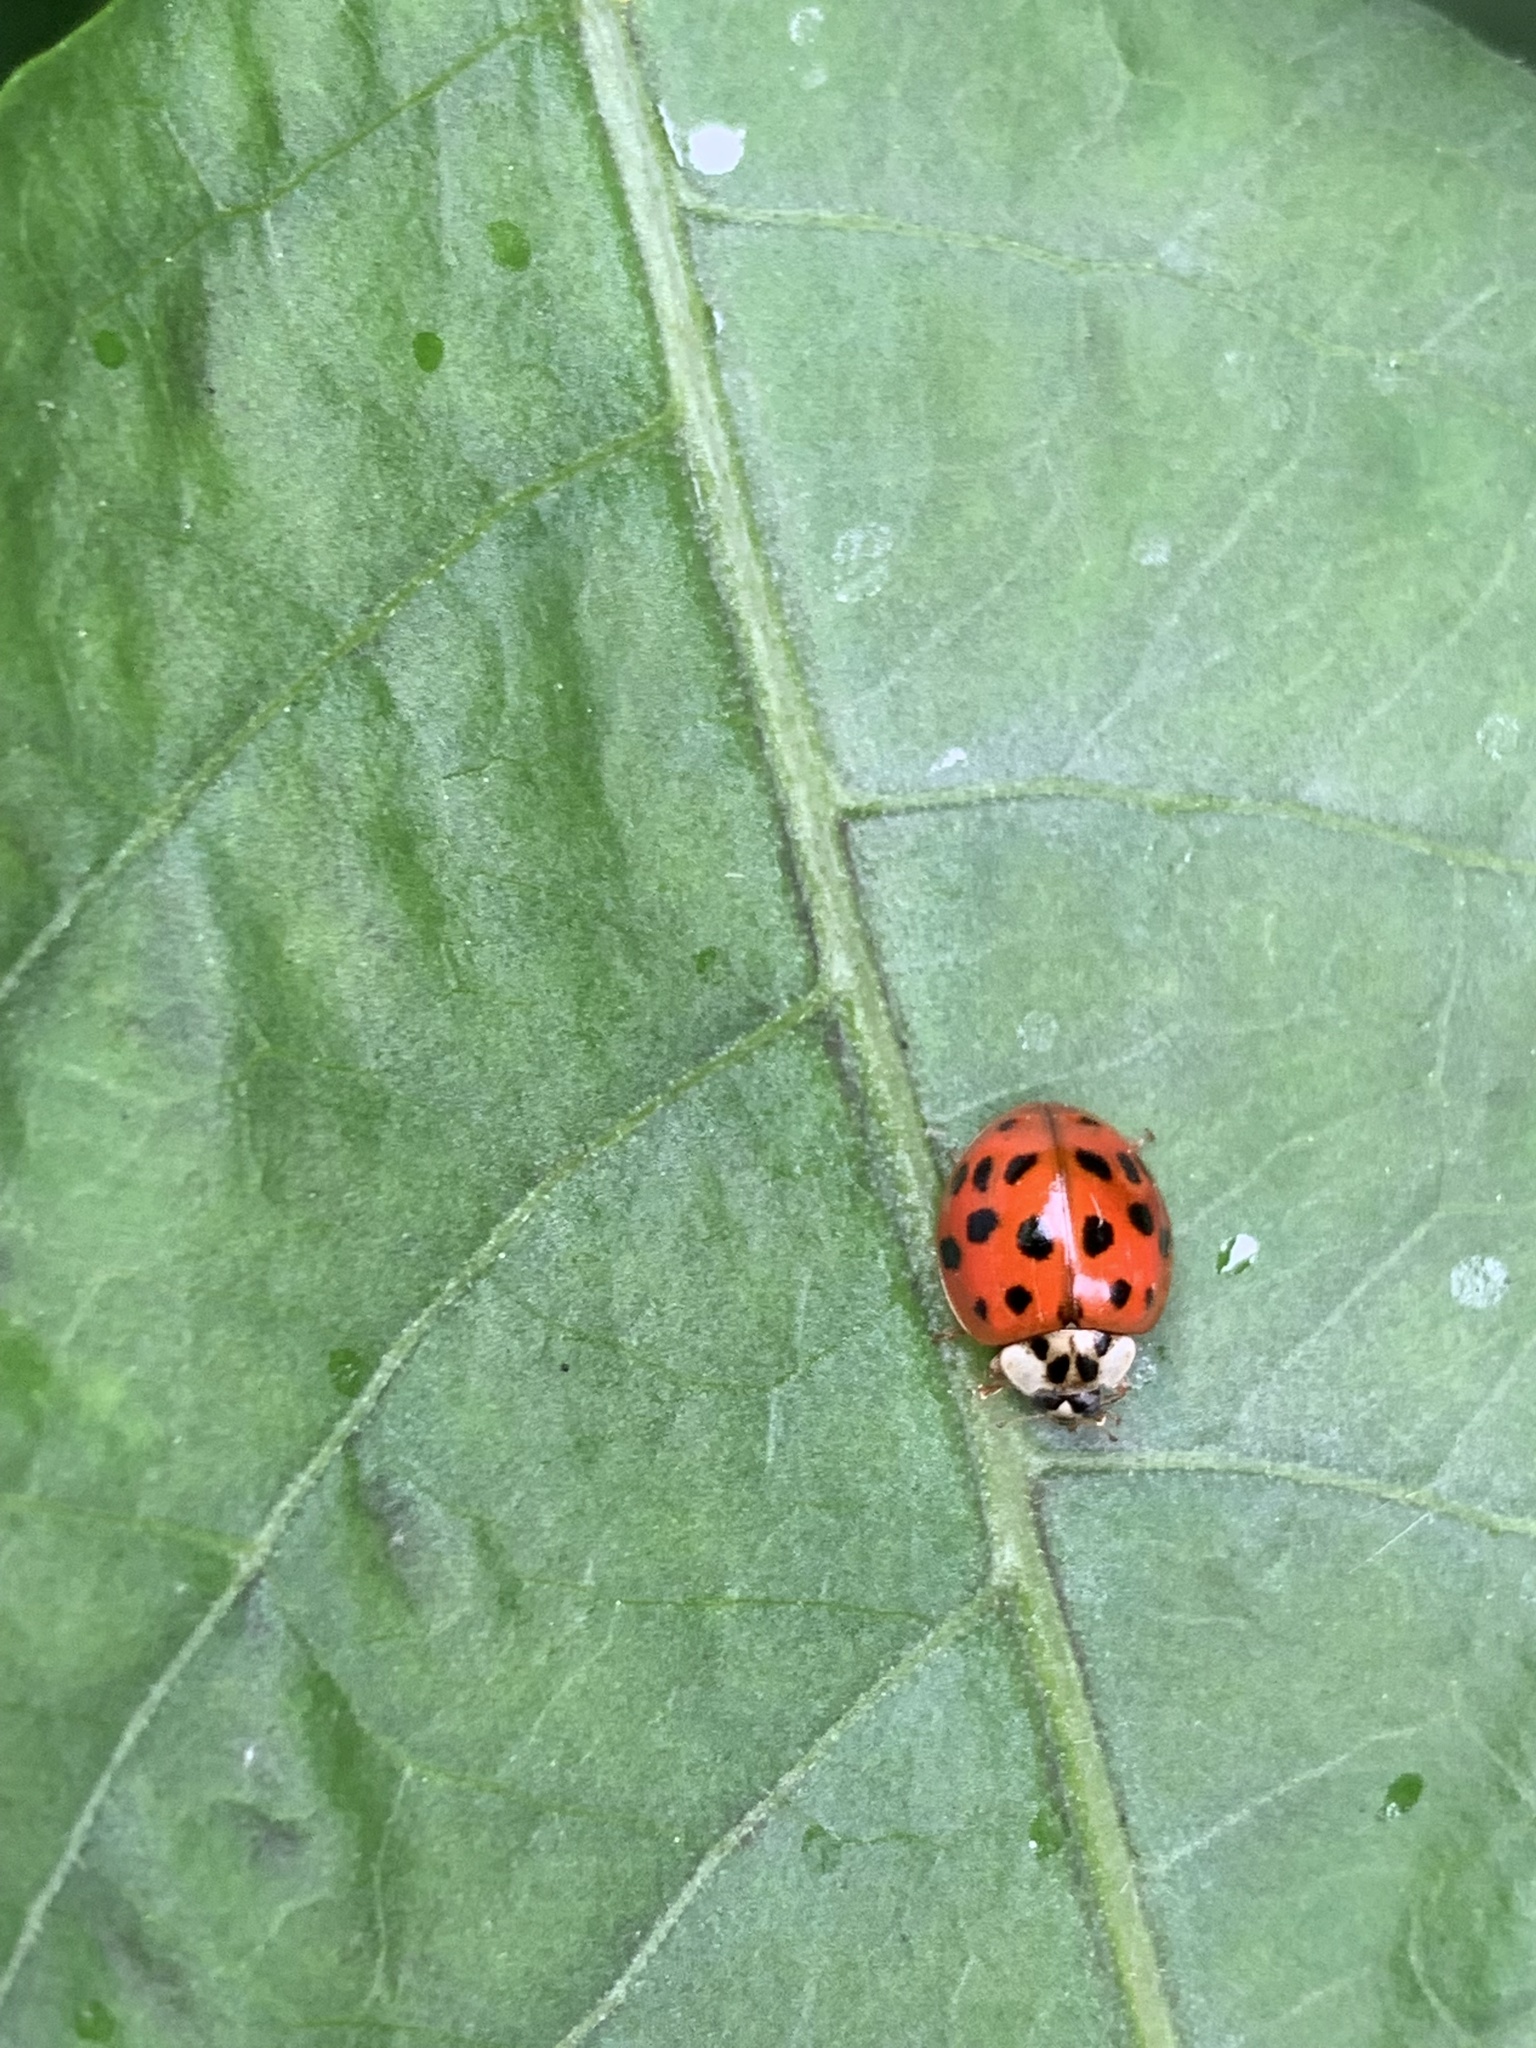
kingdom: Animalia
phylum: Arthropoda
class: Insecta
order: Coleoptera
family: Coccinellidae
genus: Harmonia
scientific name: Harmonia axyridis
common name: Harlequin ladybird
